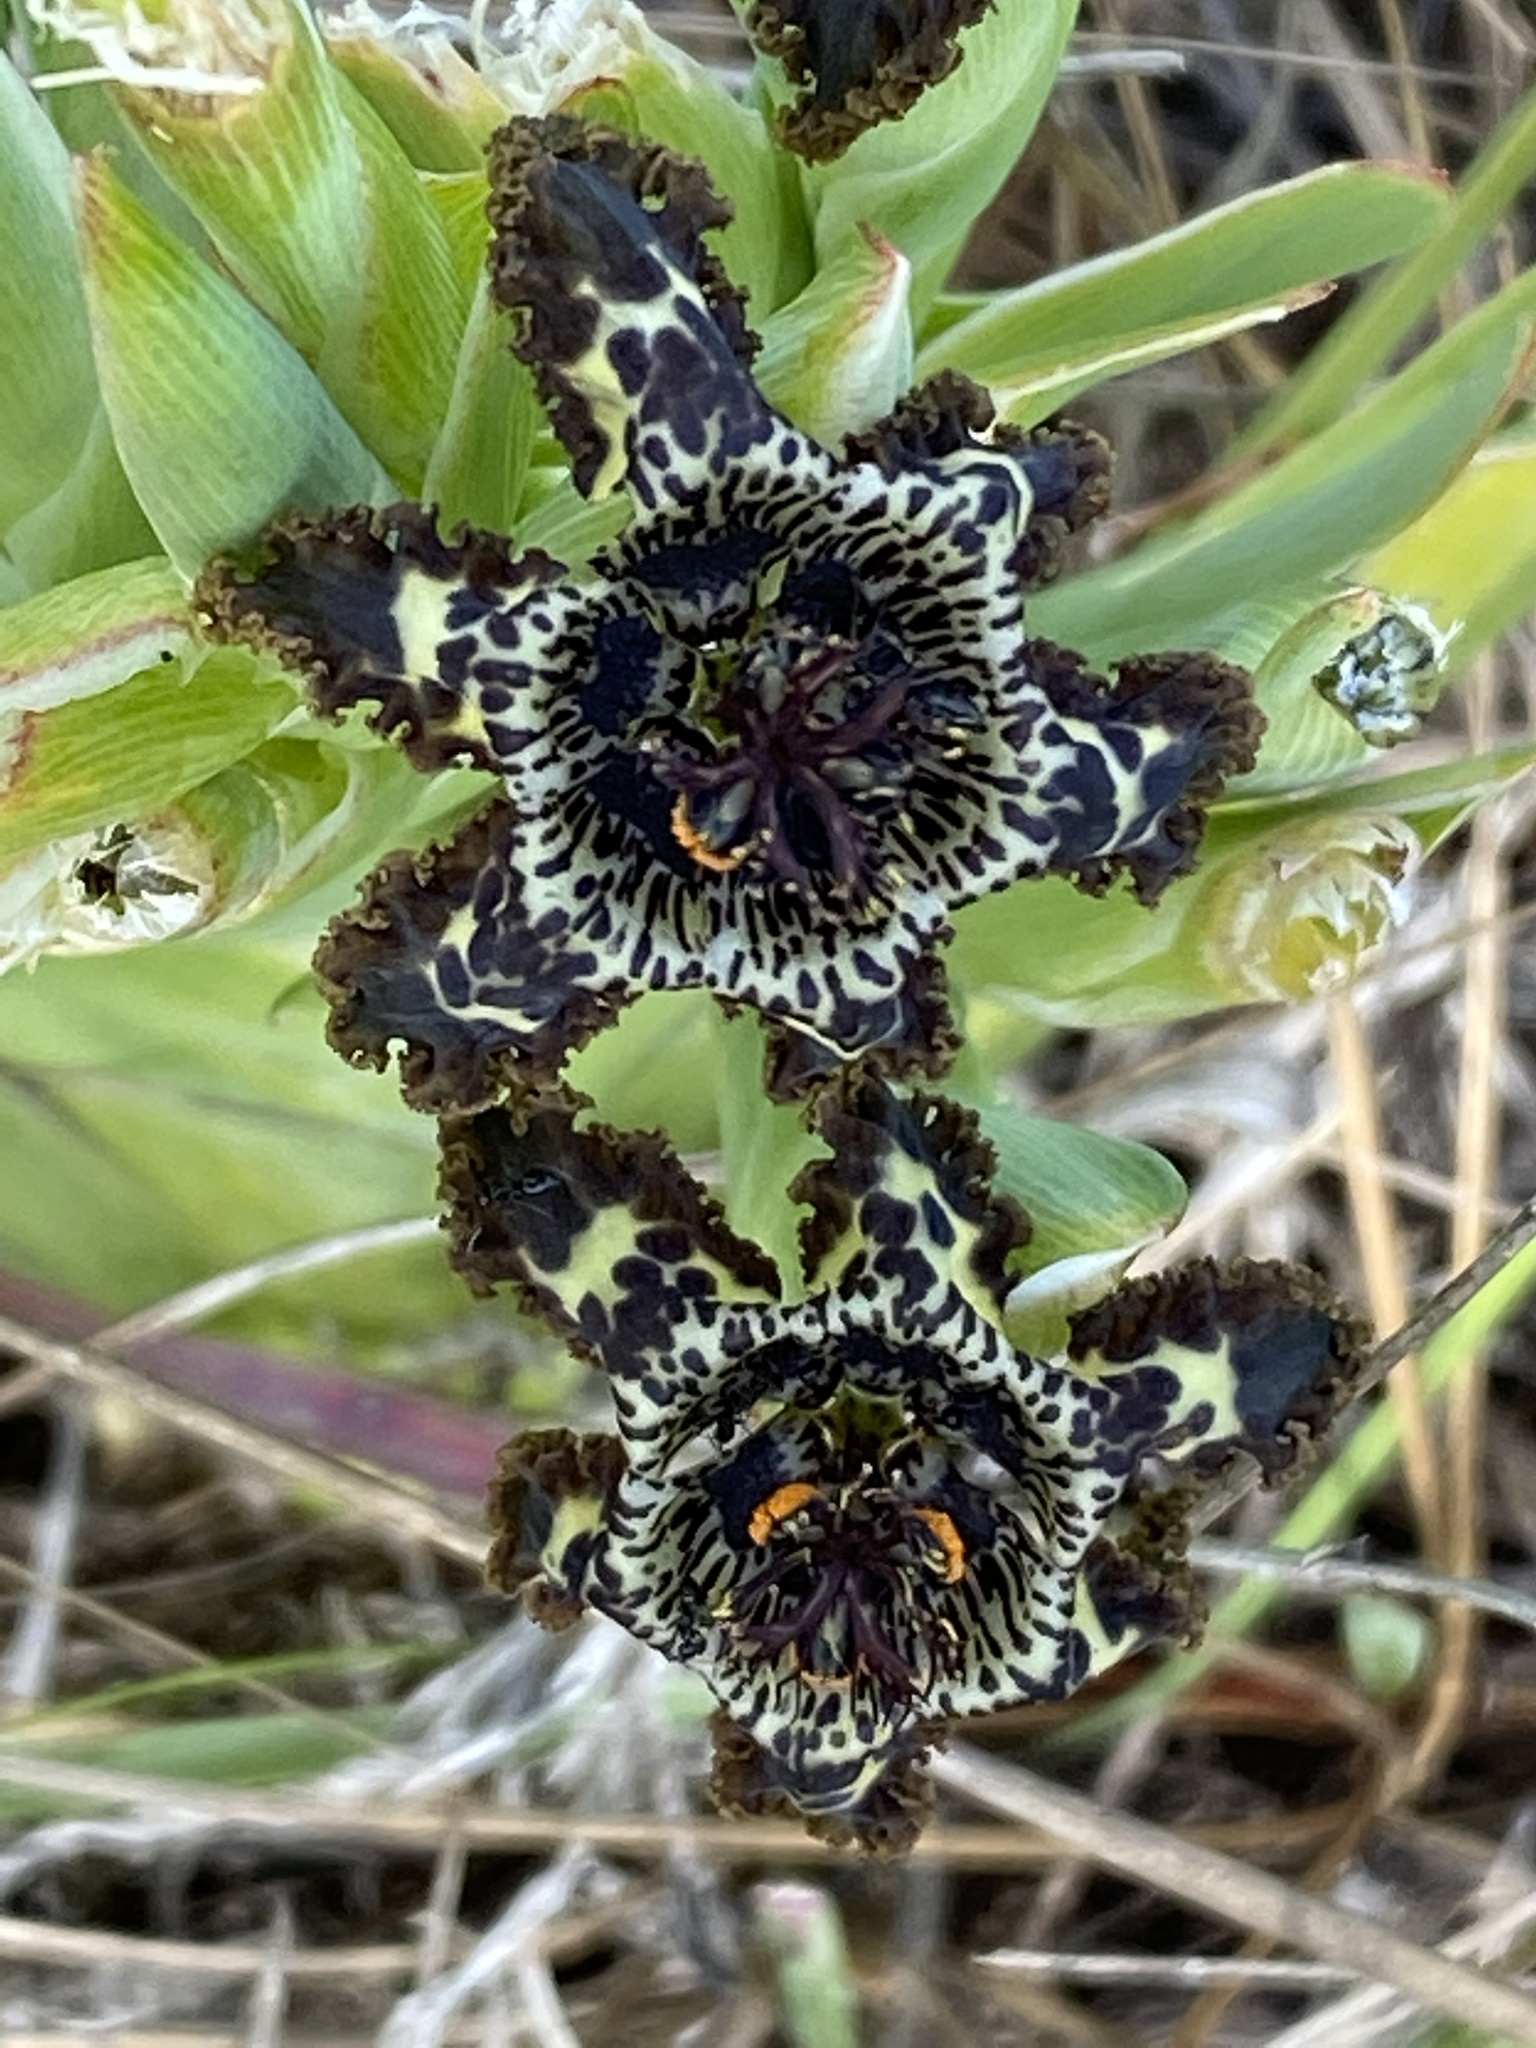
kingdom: Plantae
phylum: Tracheophyta
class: Liliopsida
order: Asparagales
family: Iridaceae
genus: Ferraria
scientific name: Ferraria crispa
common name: Black-flag
